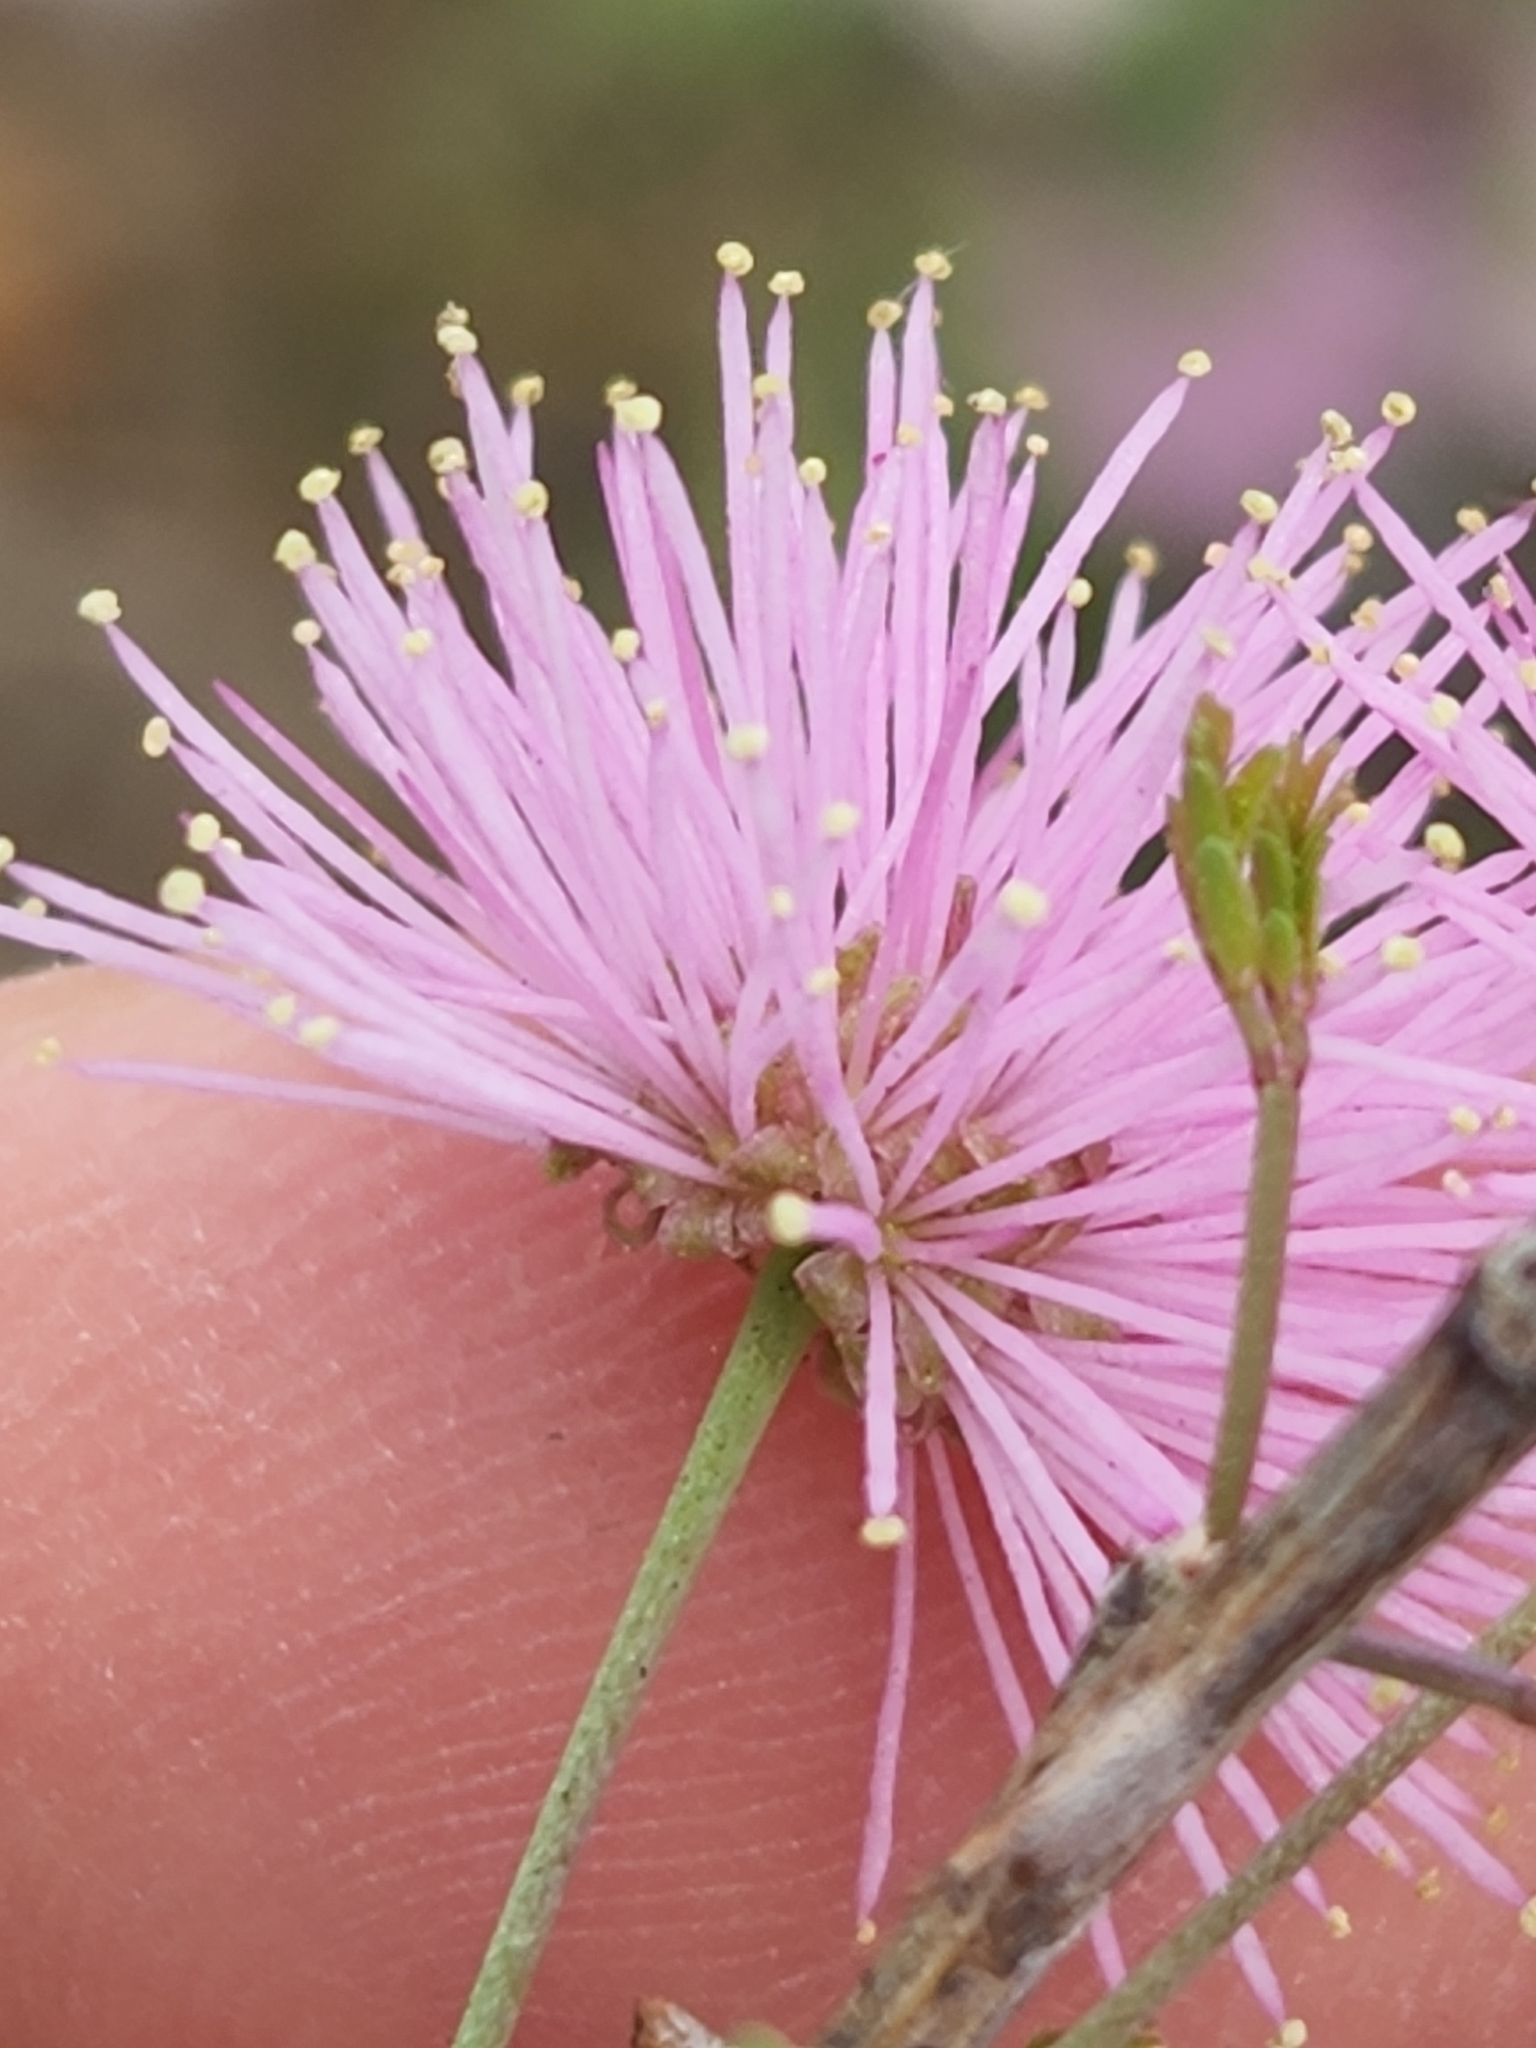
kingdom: Plantae
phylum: Tracheophyta
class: Magnoliopsida
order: Fabales
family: Fabaceae
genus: Mimosa
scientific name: Mimosa borealis
